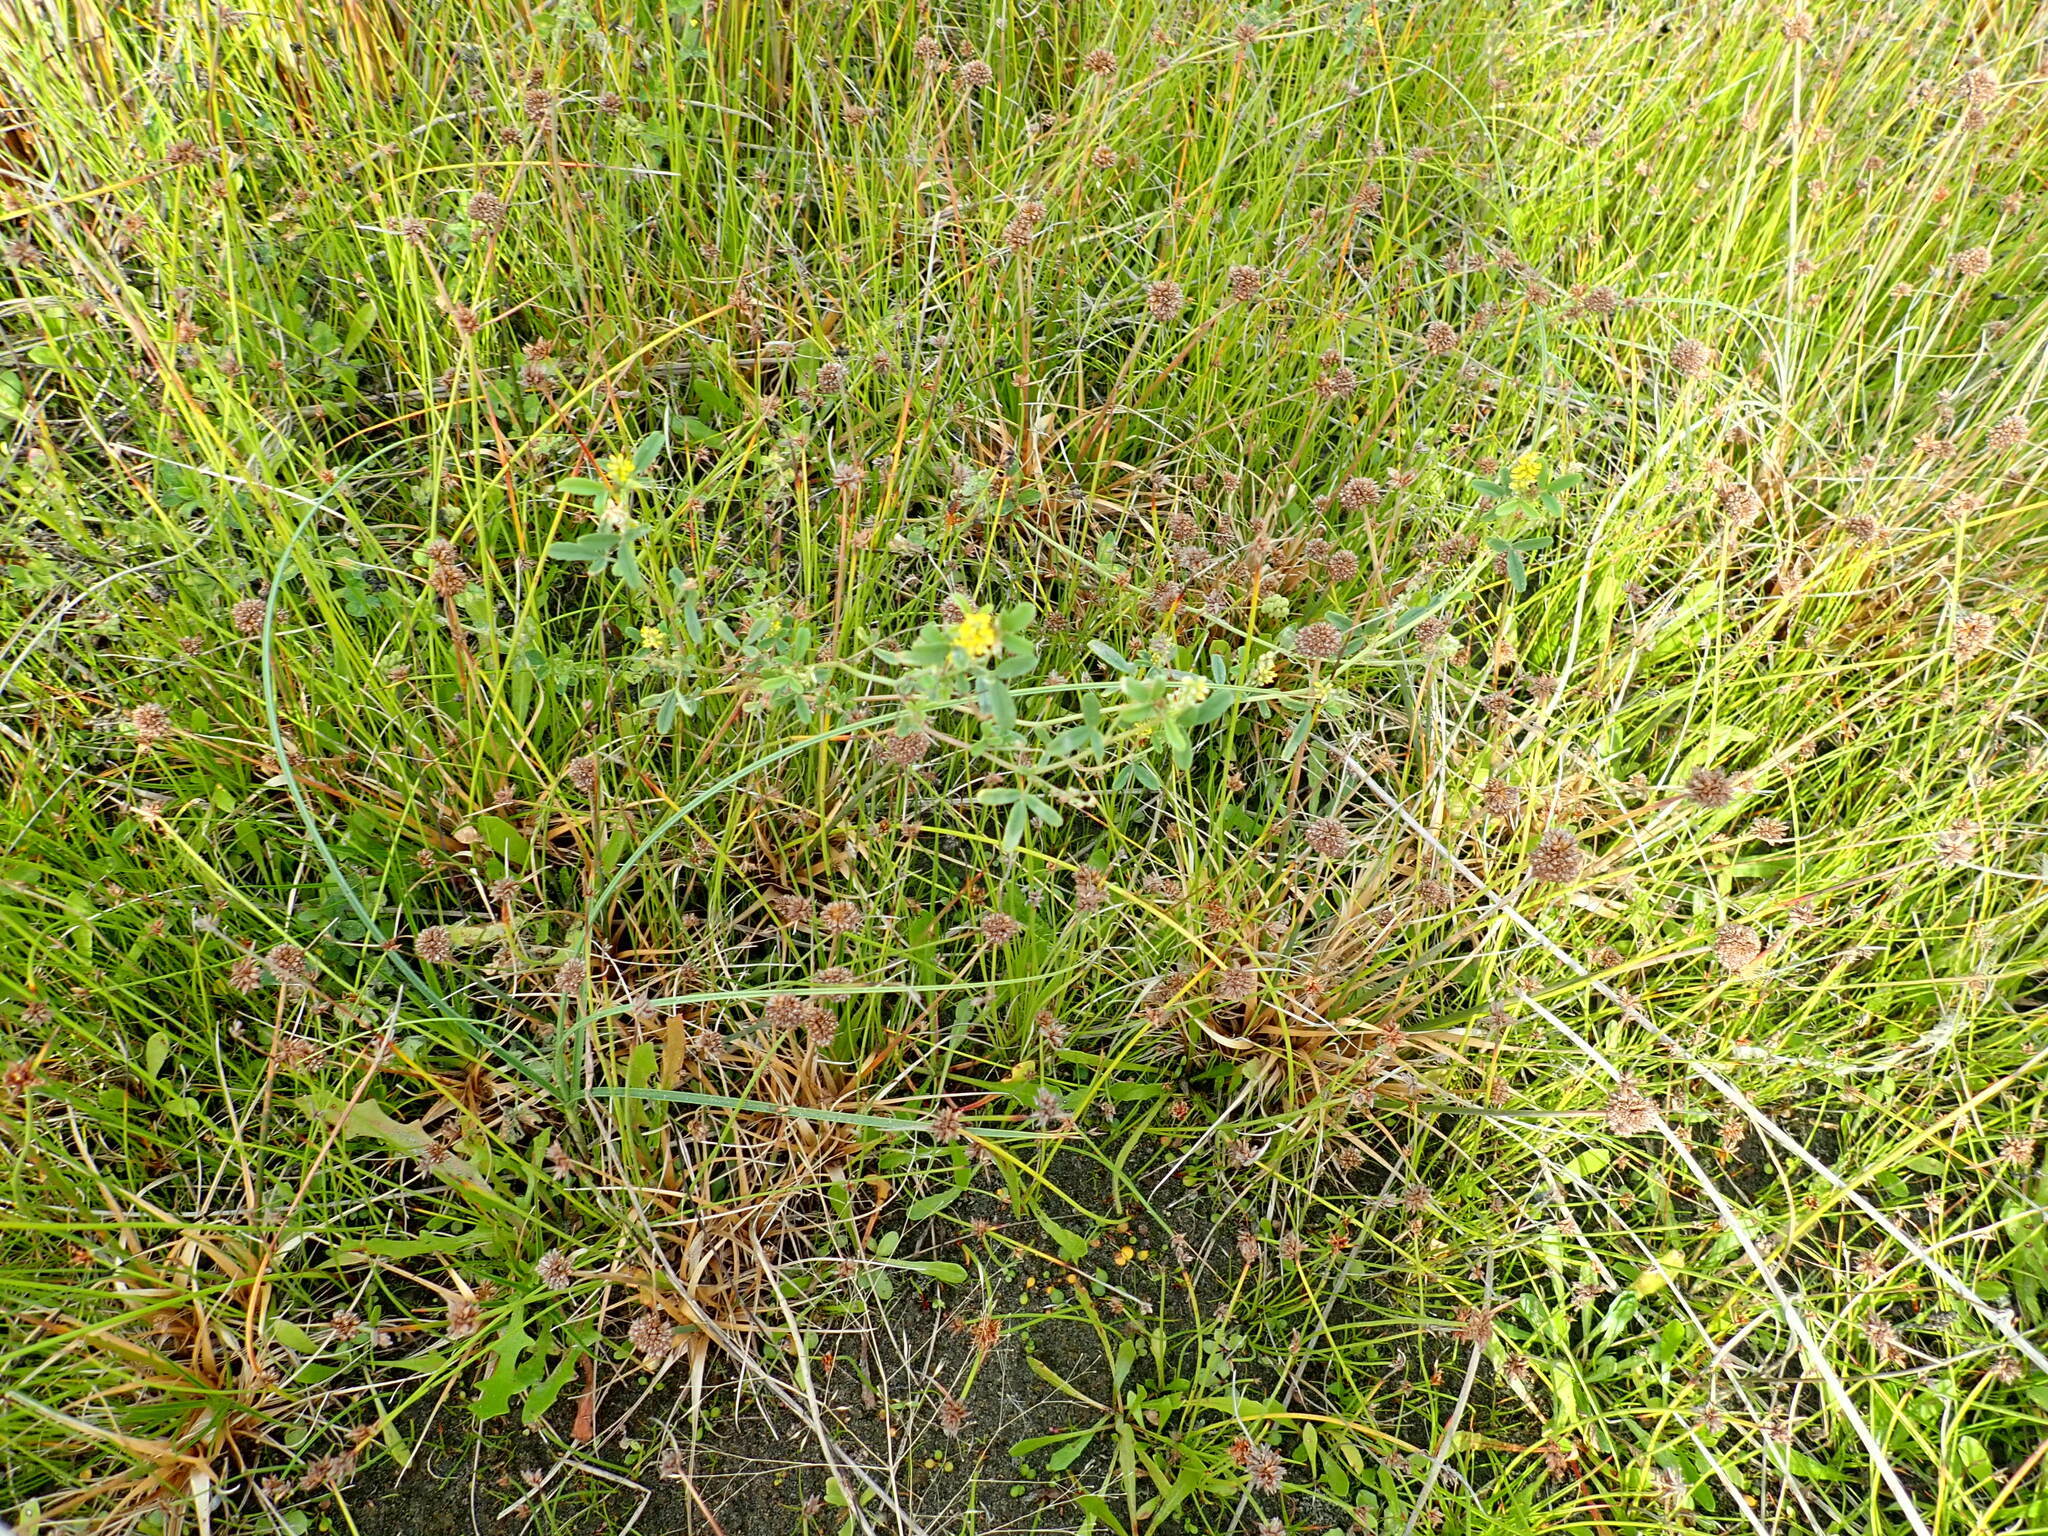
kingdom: Plantae
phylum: Tracheophyta
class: Magnoliopsida
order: Fabales
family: Fabaceae
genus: Melilotus
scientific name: Melilotus indicus
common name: Small melilot
